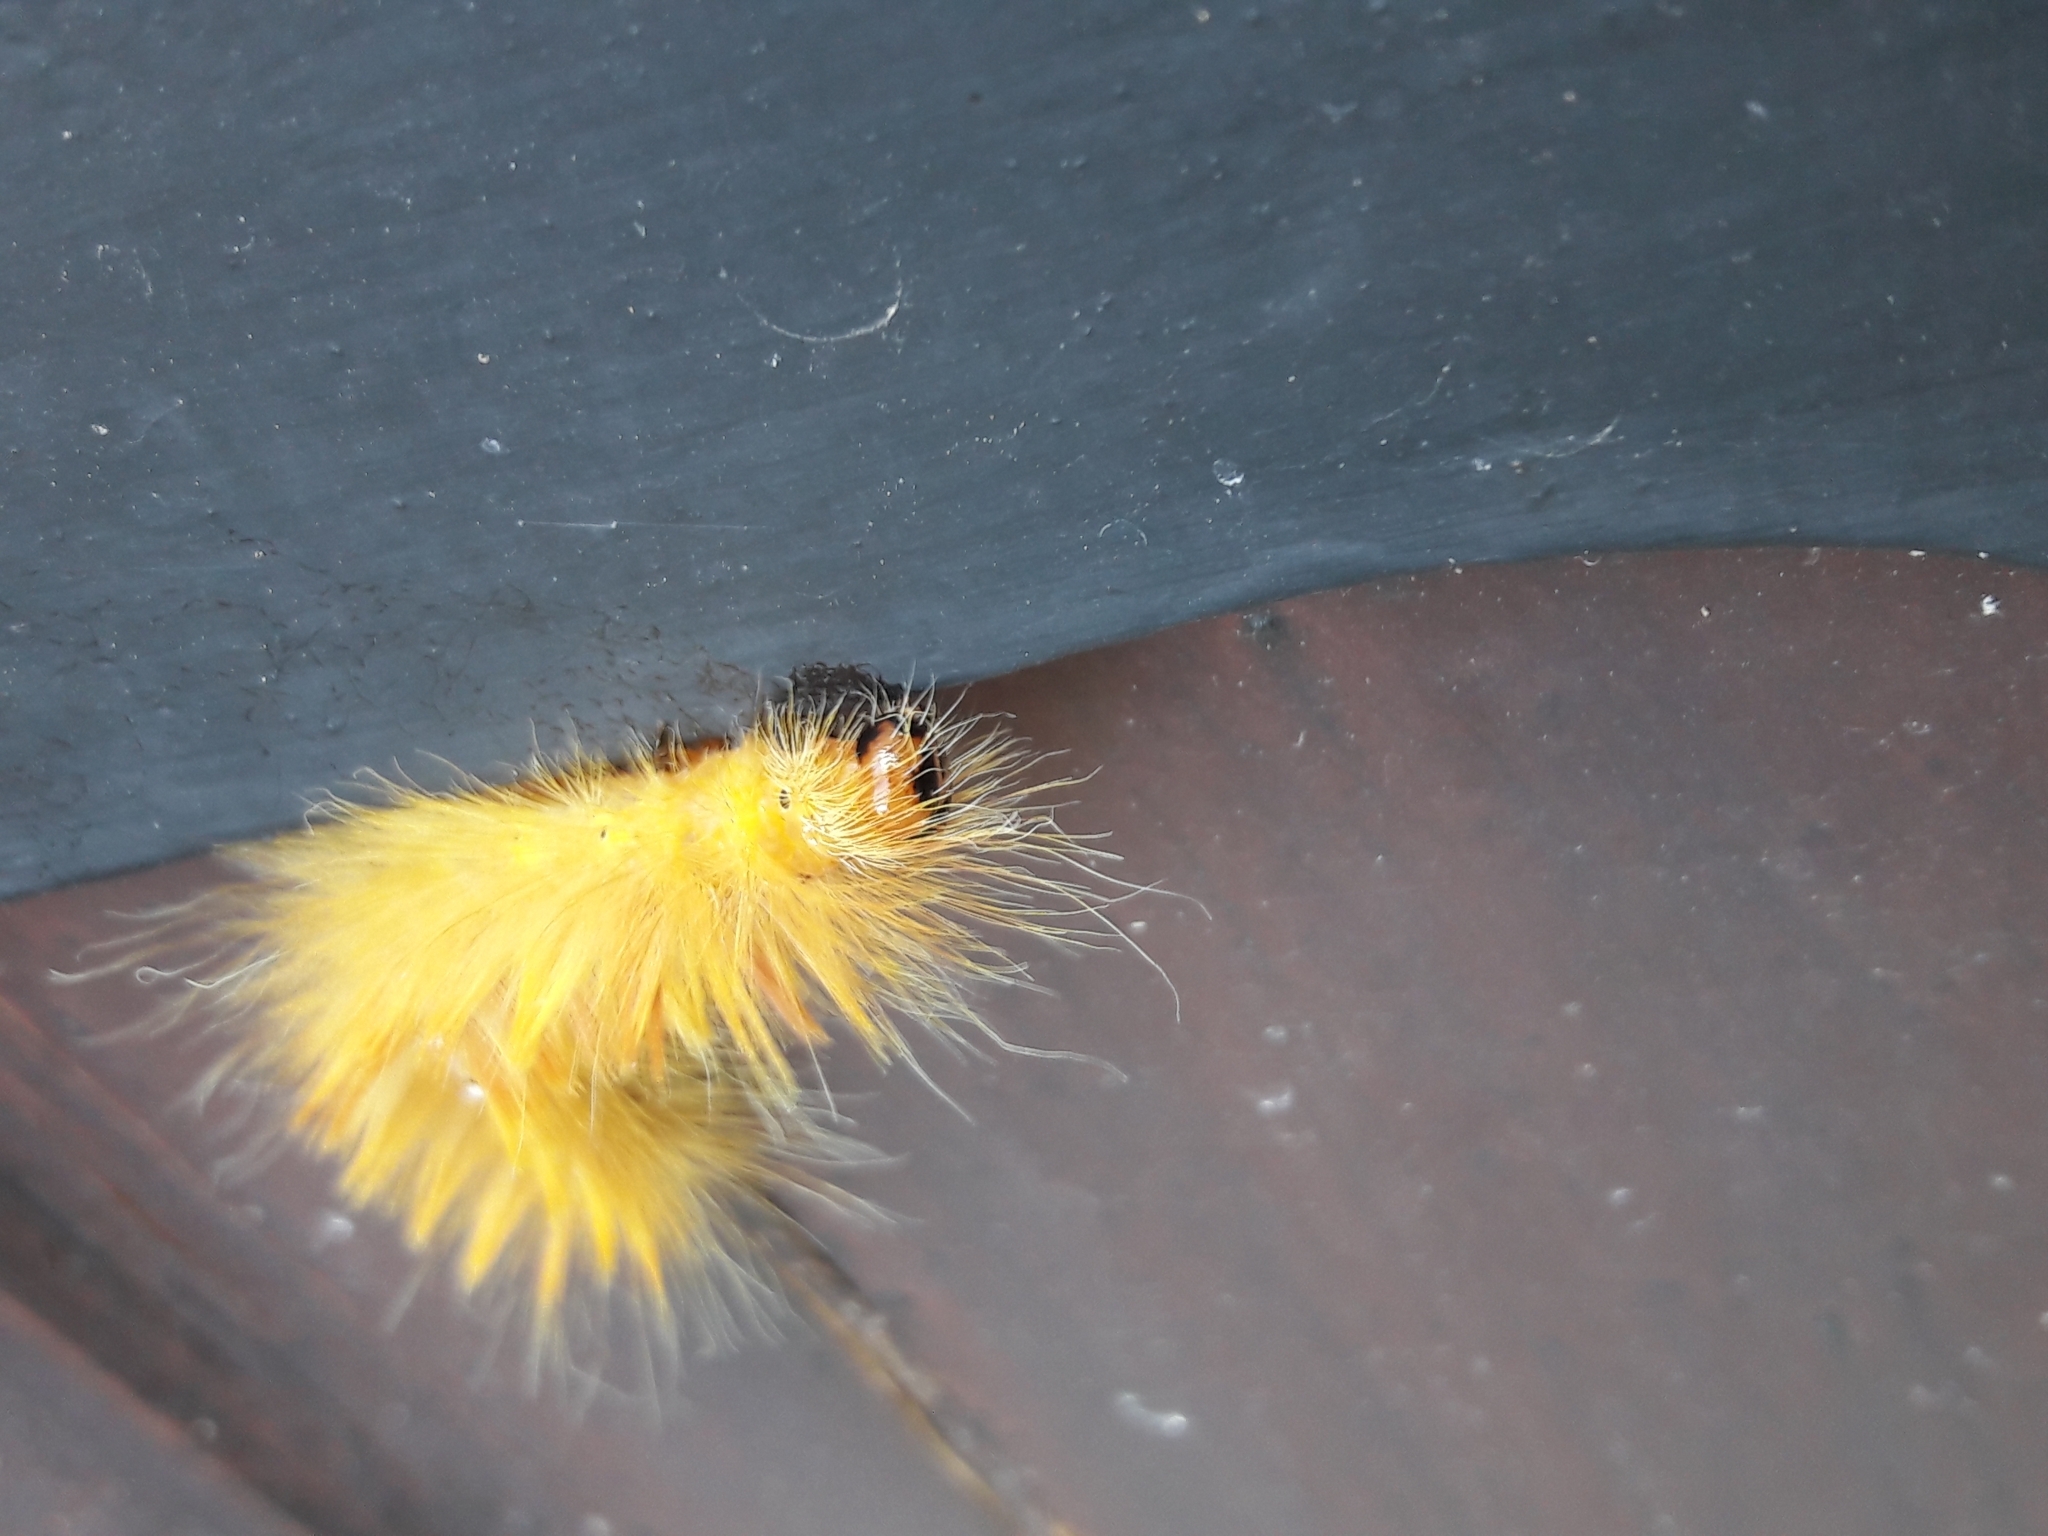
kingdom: Animalia
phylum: Arthropoda
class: Insecta
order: Lepidoptera
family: Noctuidae
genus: Acronicta
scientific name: Acronicta aceris
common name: Sycamore
